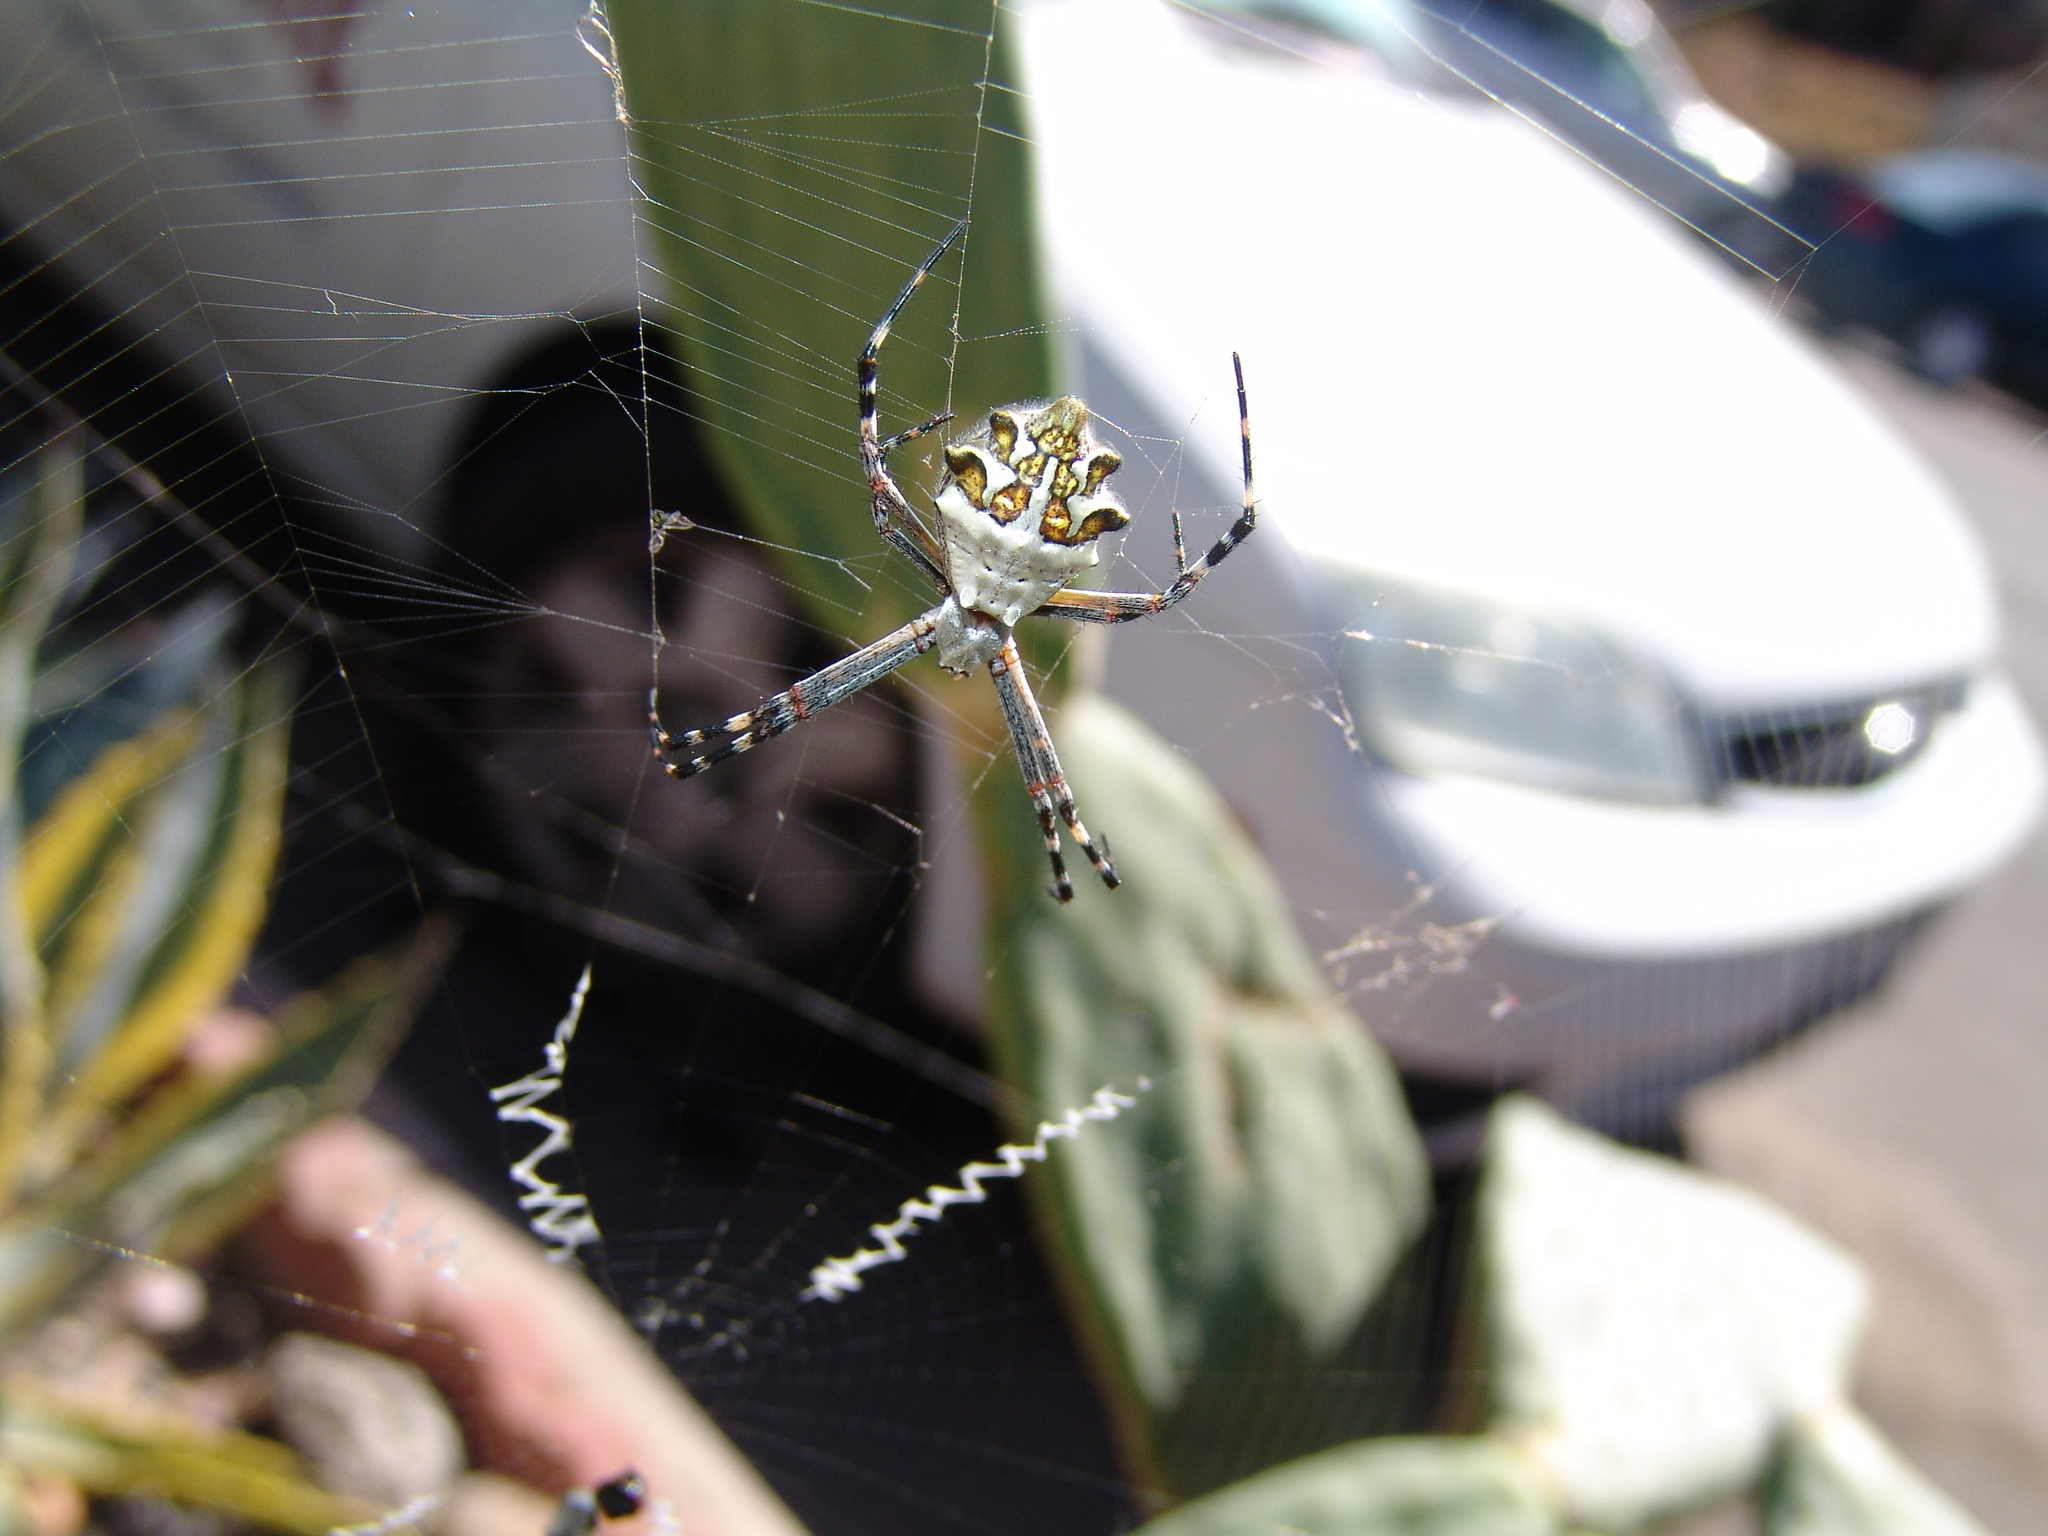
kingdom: Animalia
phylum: Arthropoda
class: Arachnida
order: Araneae
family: Araneidae
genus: Argiope
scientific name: Argiope argentata
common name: Orb weavers
